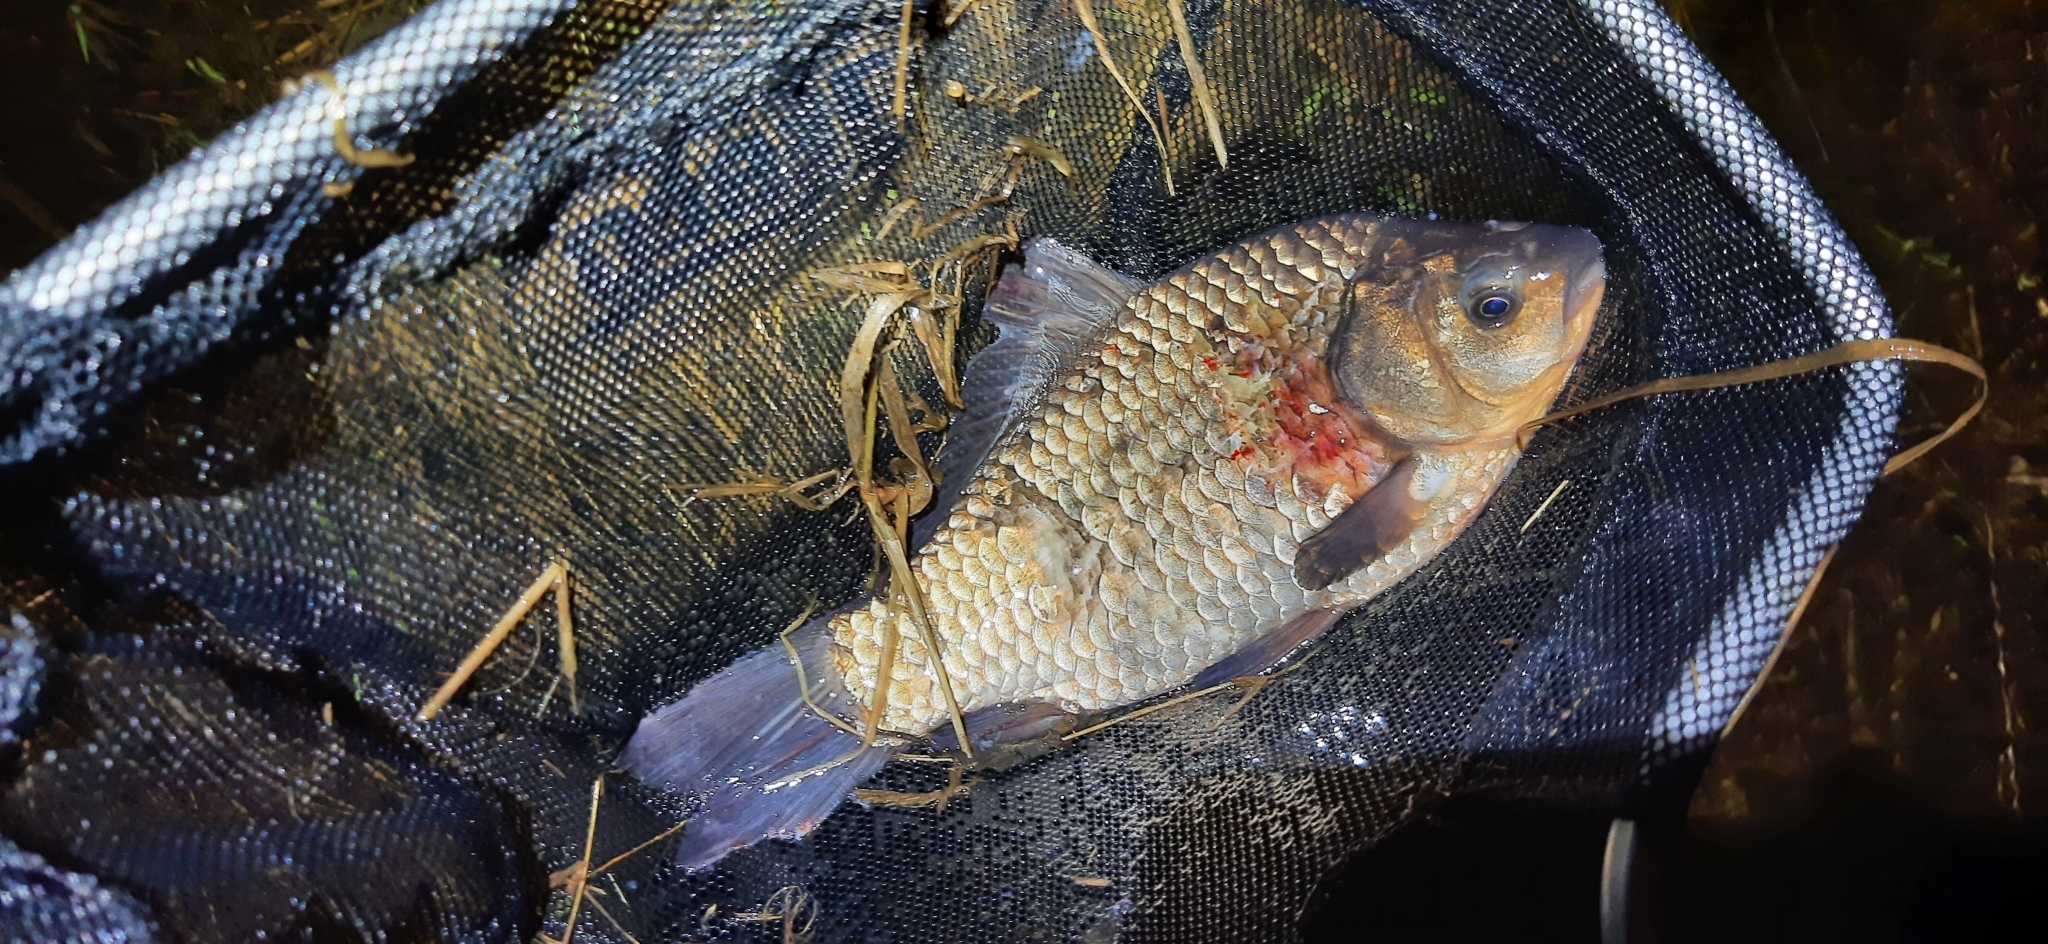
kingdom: Animalia
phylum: Chordata
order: Cypriniformes
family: Cyprinidae
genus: Carassius
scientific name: Carassius gibelio
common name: Prussian carp
